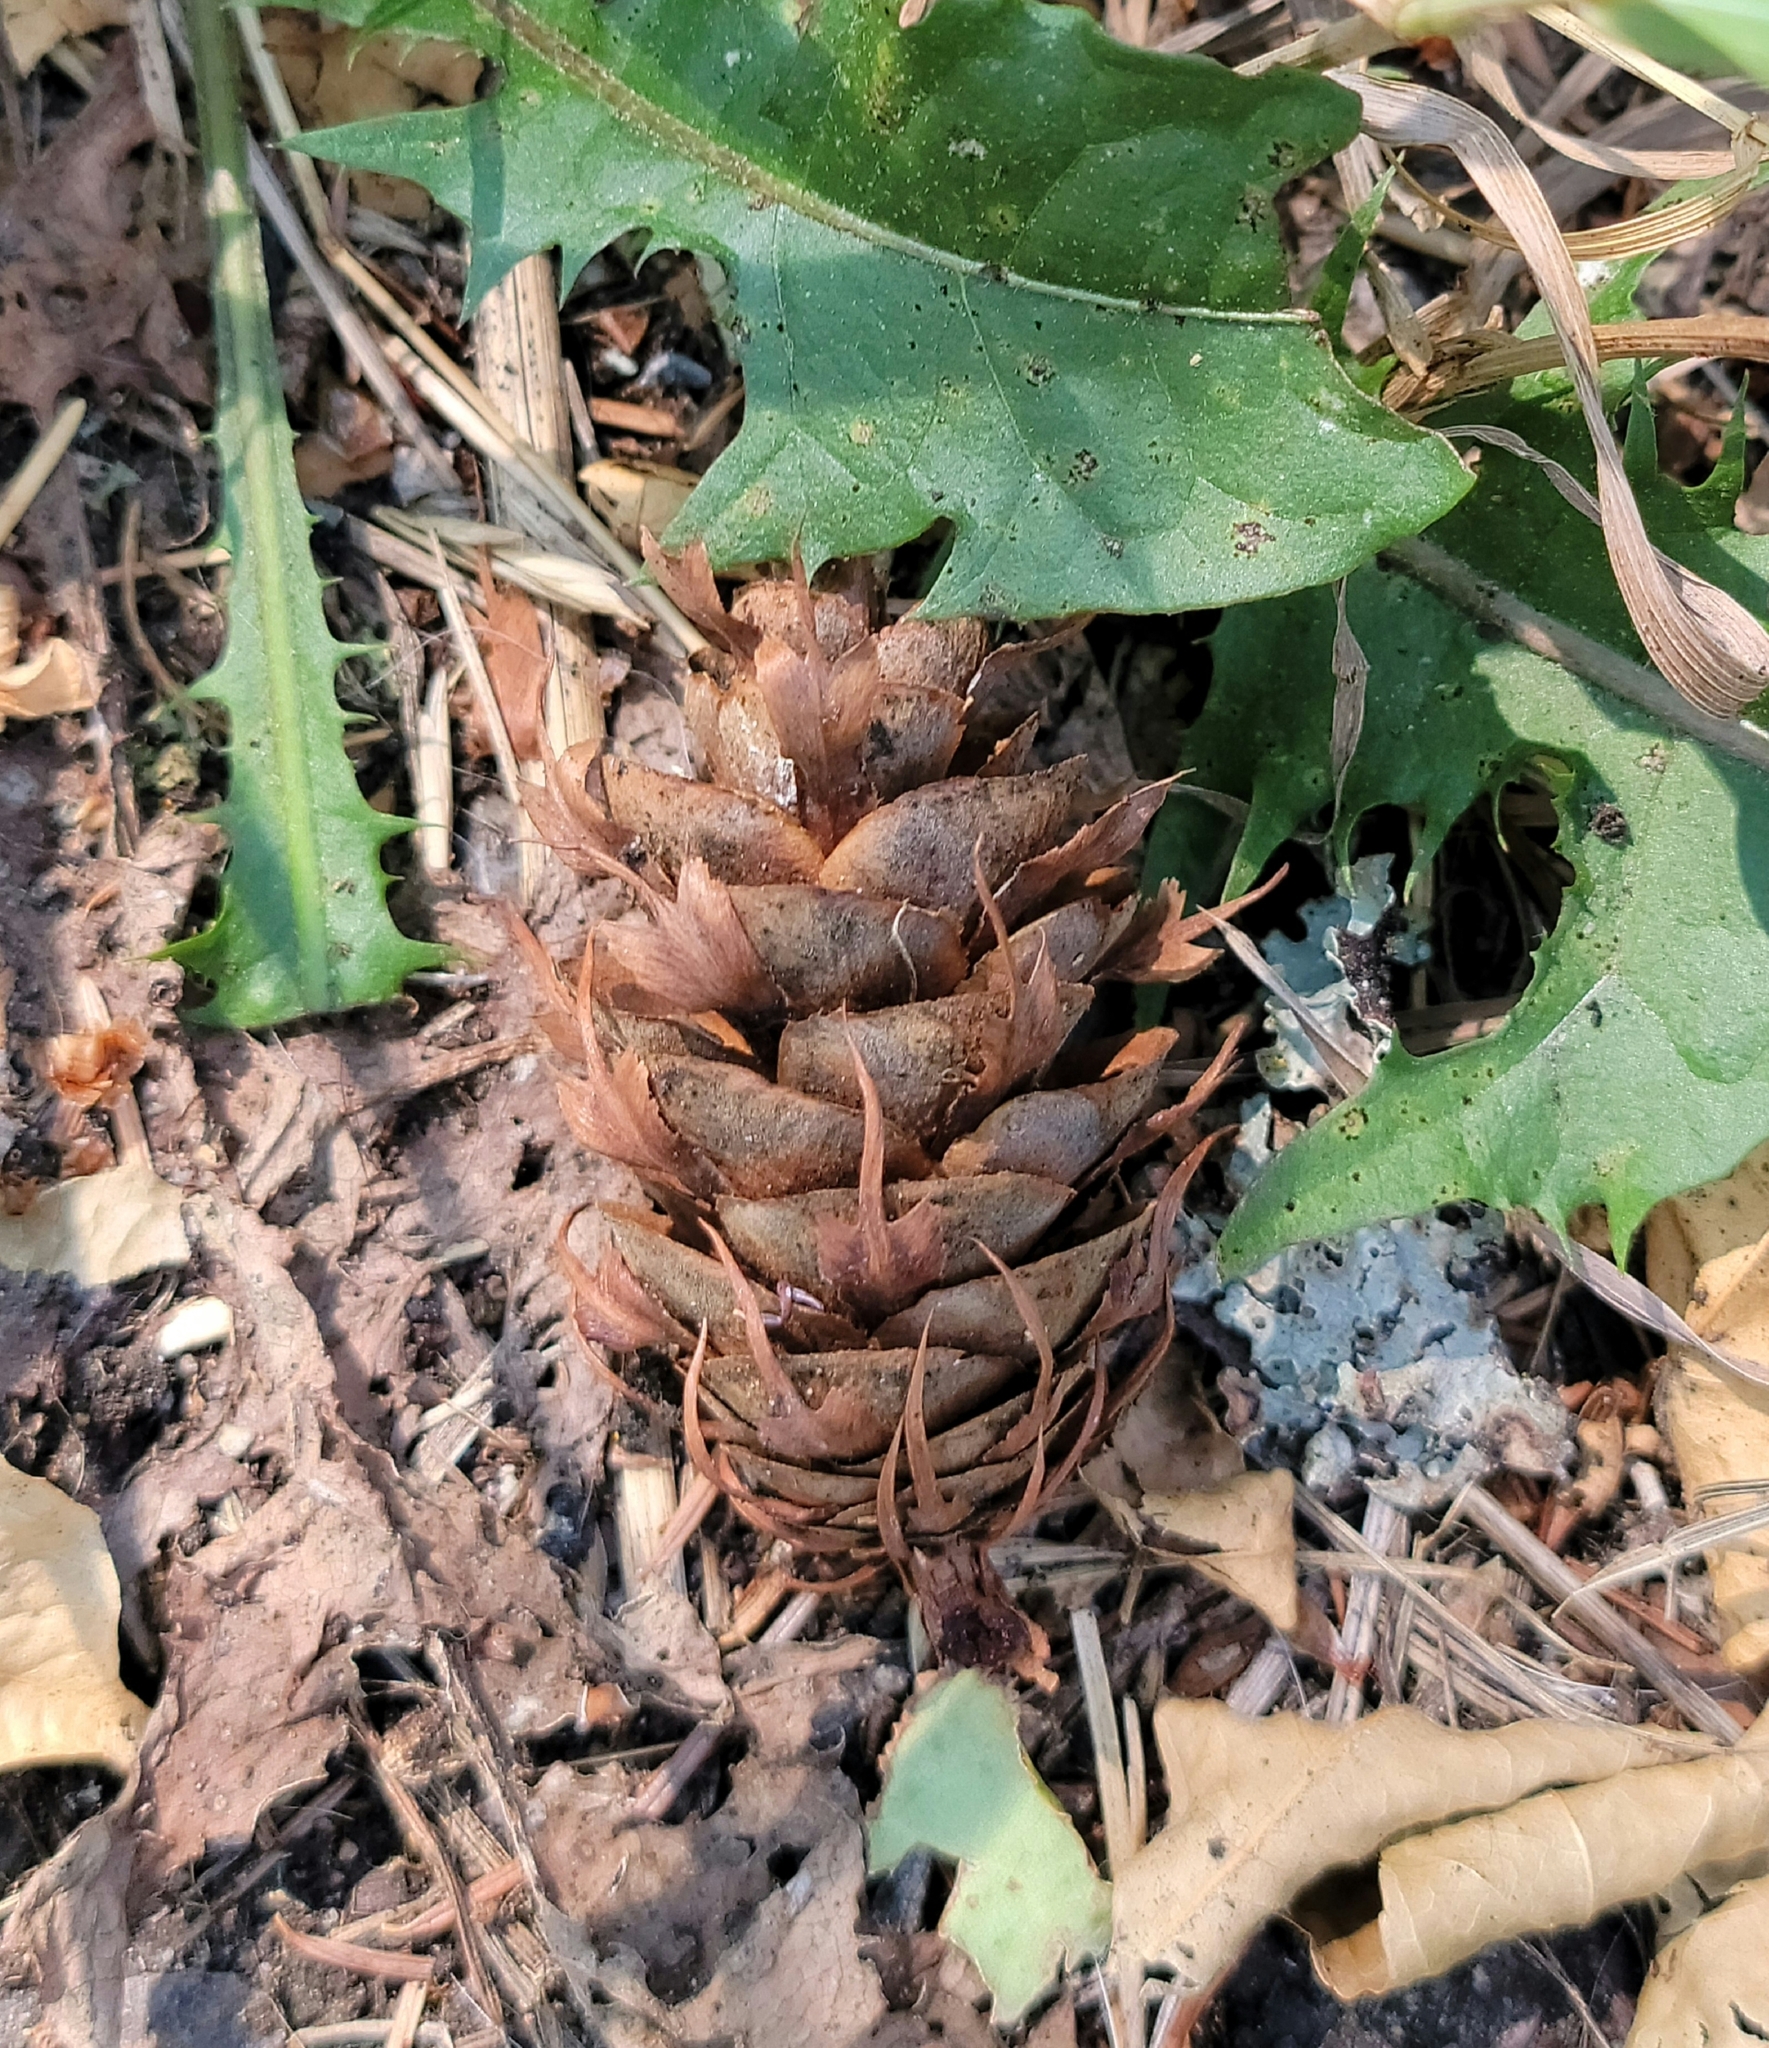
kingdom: Plantae
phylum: Tracheophyta
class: Pinopsida
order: Pinales
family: Pinaceae
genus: Pseudotsuga
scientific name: Pseudotsuga menziesii
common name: Douglas fir
